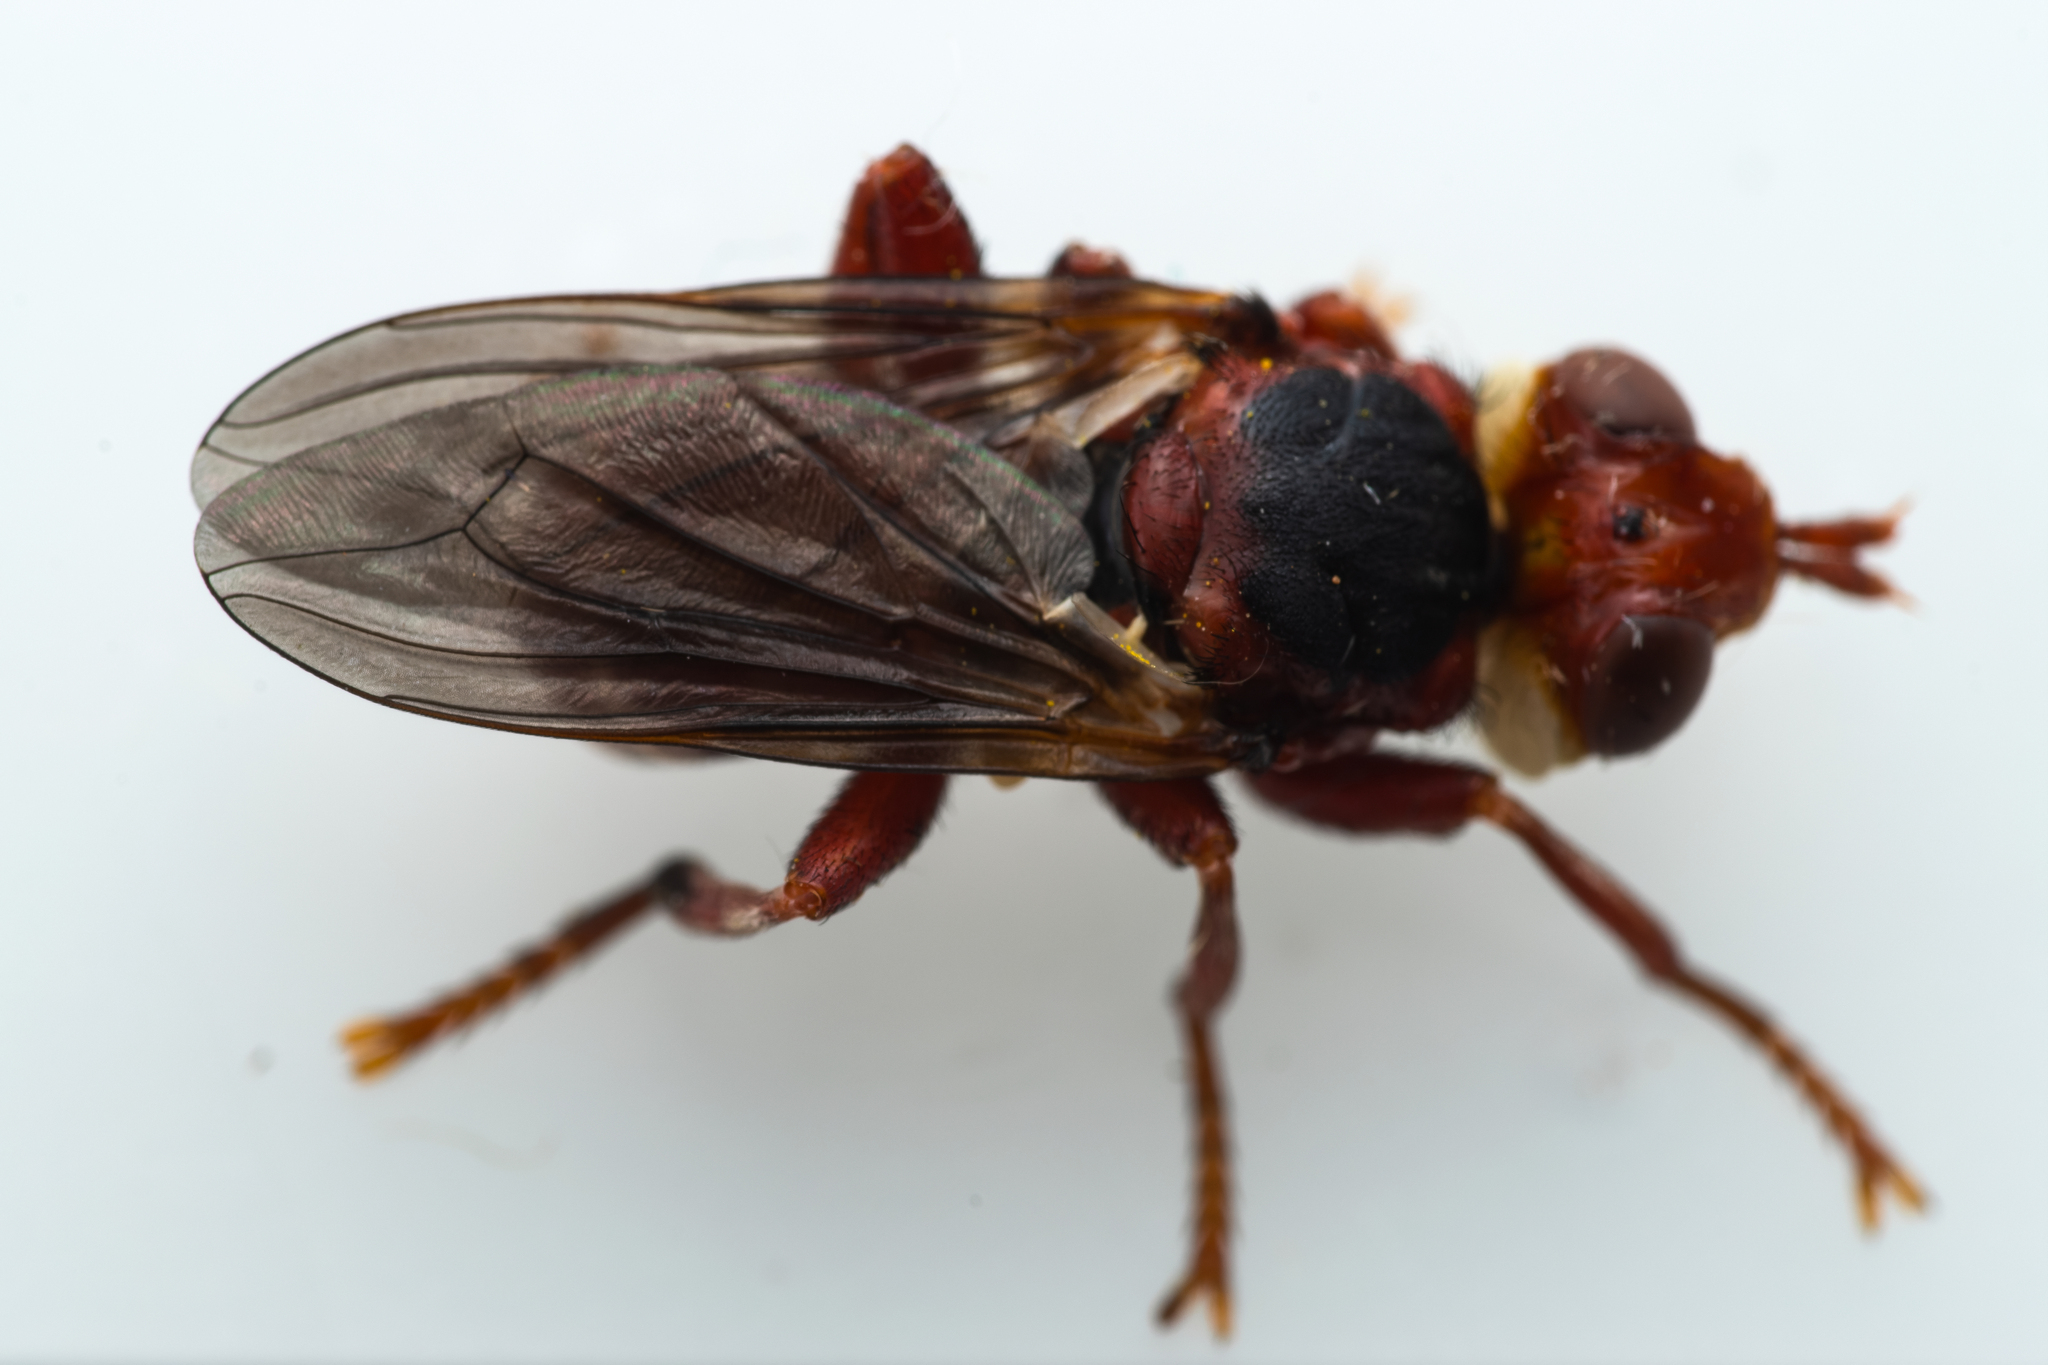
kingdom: Animalia
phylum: Arthropoda
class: Insecta
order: Diptera
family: Conopidae
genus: Myopa
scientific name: Myopa dorsalis
